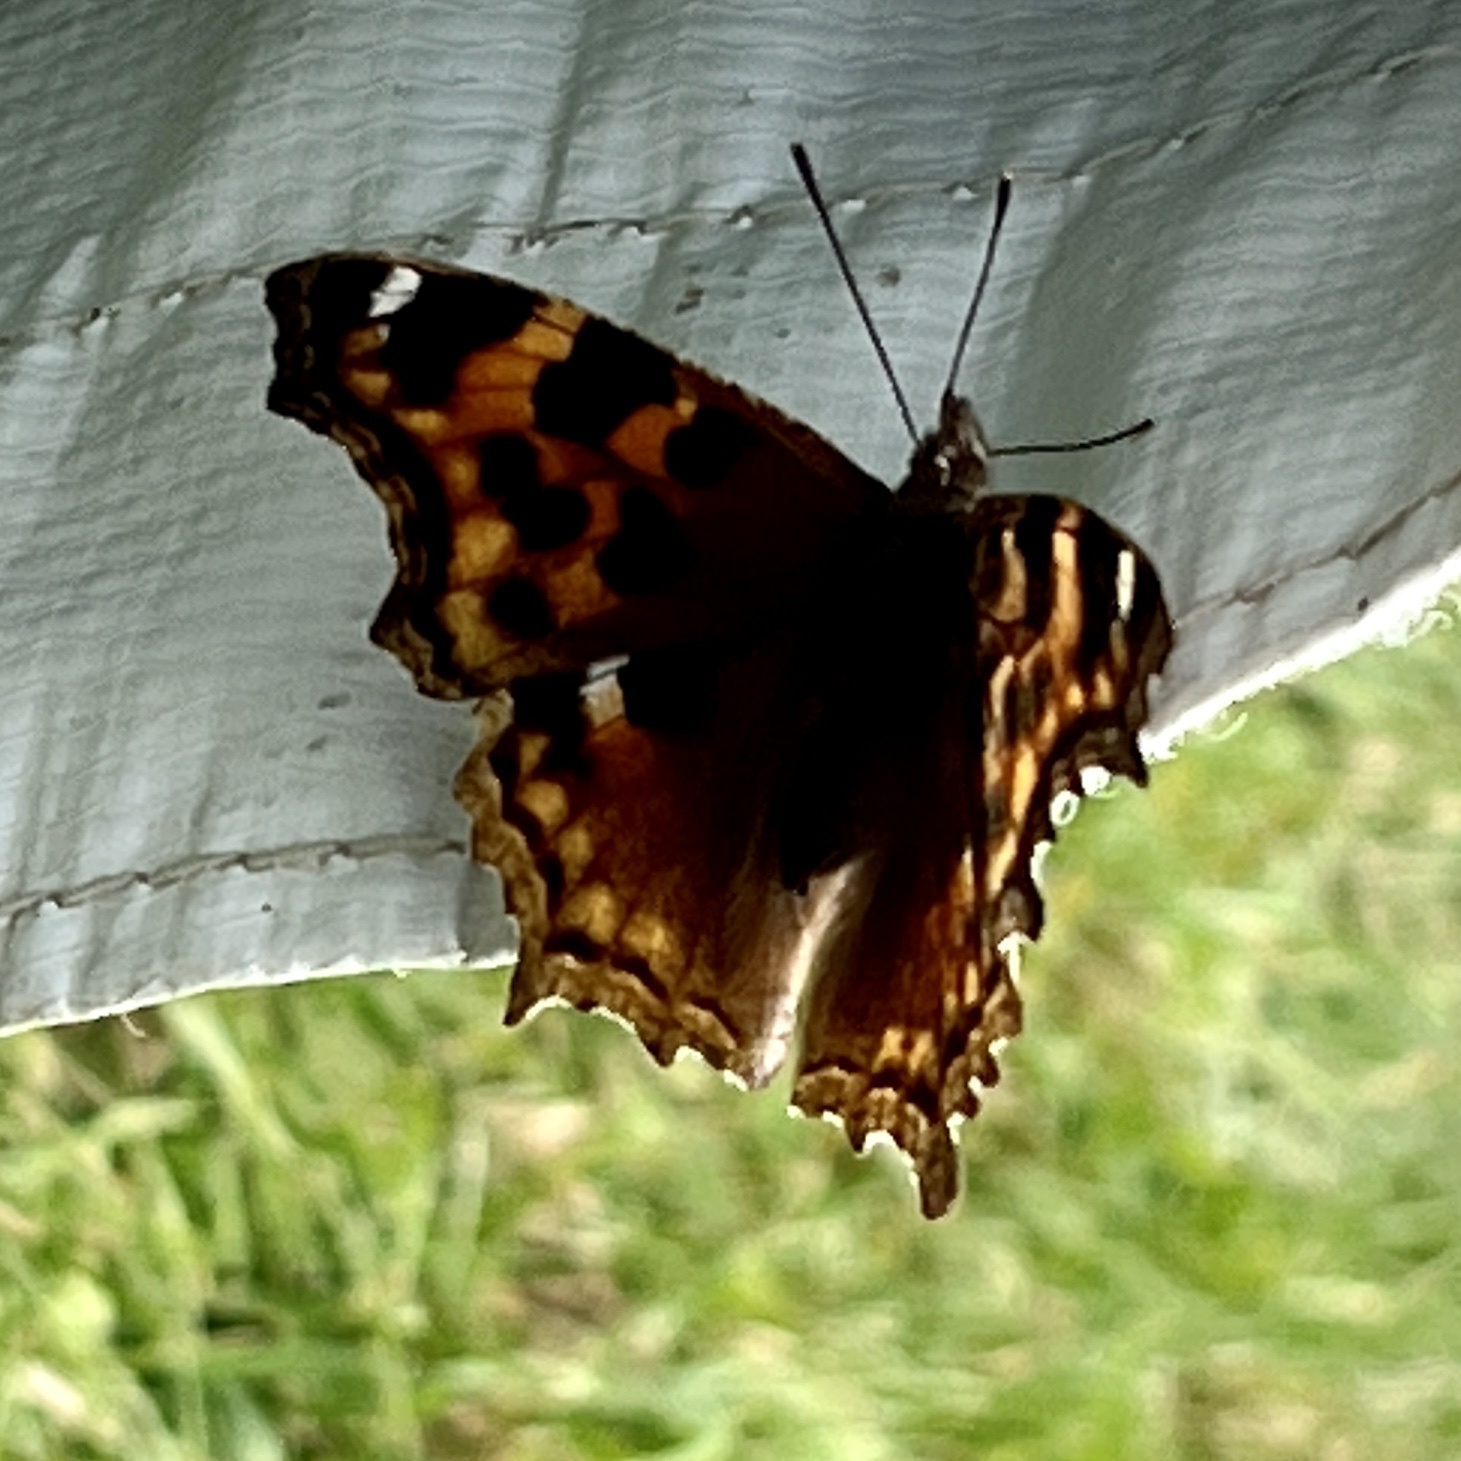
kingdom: Animalia
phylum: Arthropoda
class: Insecta
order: Lepidoptera
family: Nymphalidae
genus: Polygonia
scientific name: Polygonia vaualbum
